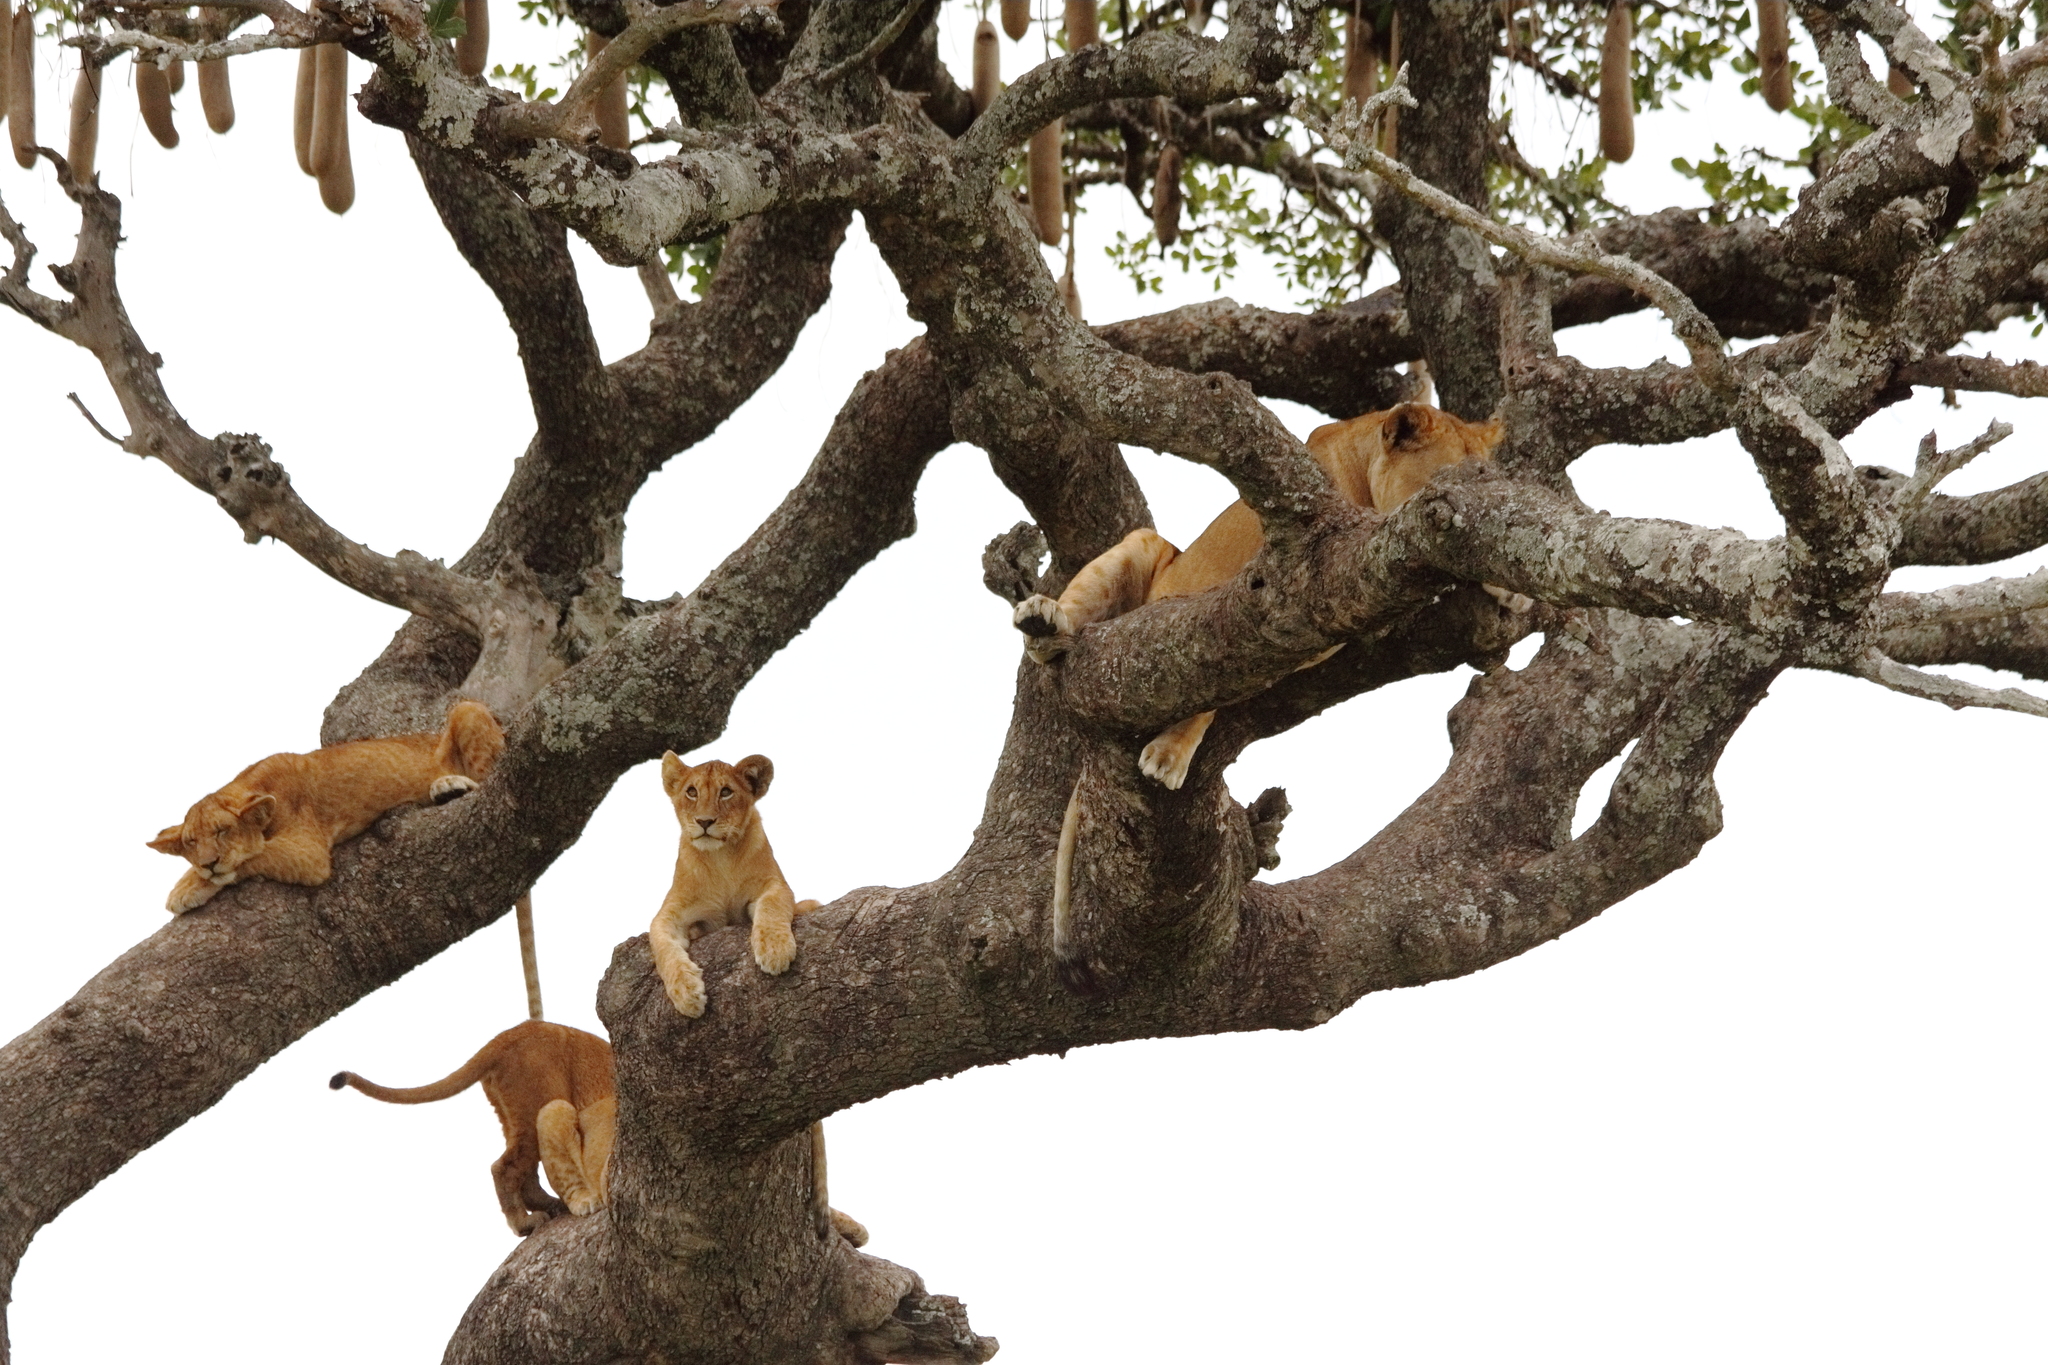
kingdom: Animalia
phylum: Chordata
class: Mammalia
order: Carnivora
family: Felidae
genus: Panthera
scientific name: Panthera leo
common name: Lion
